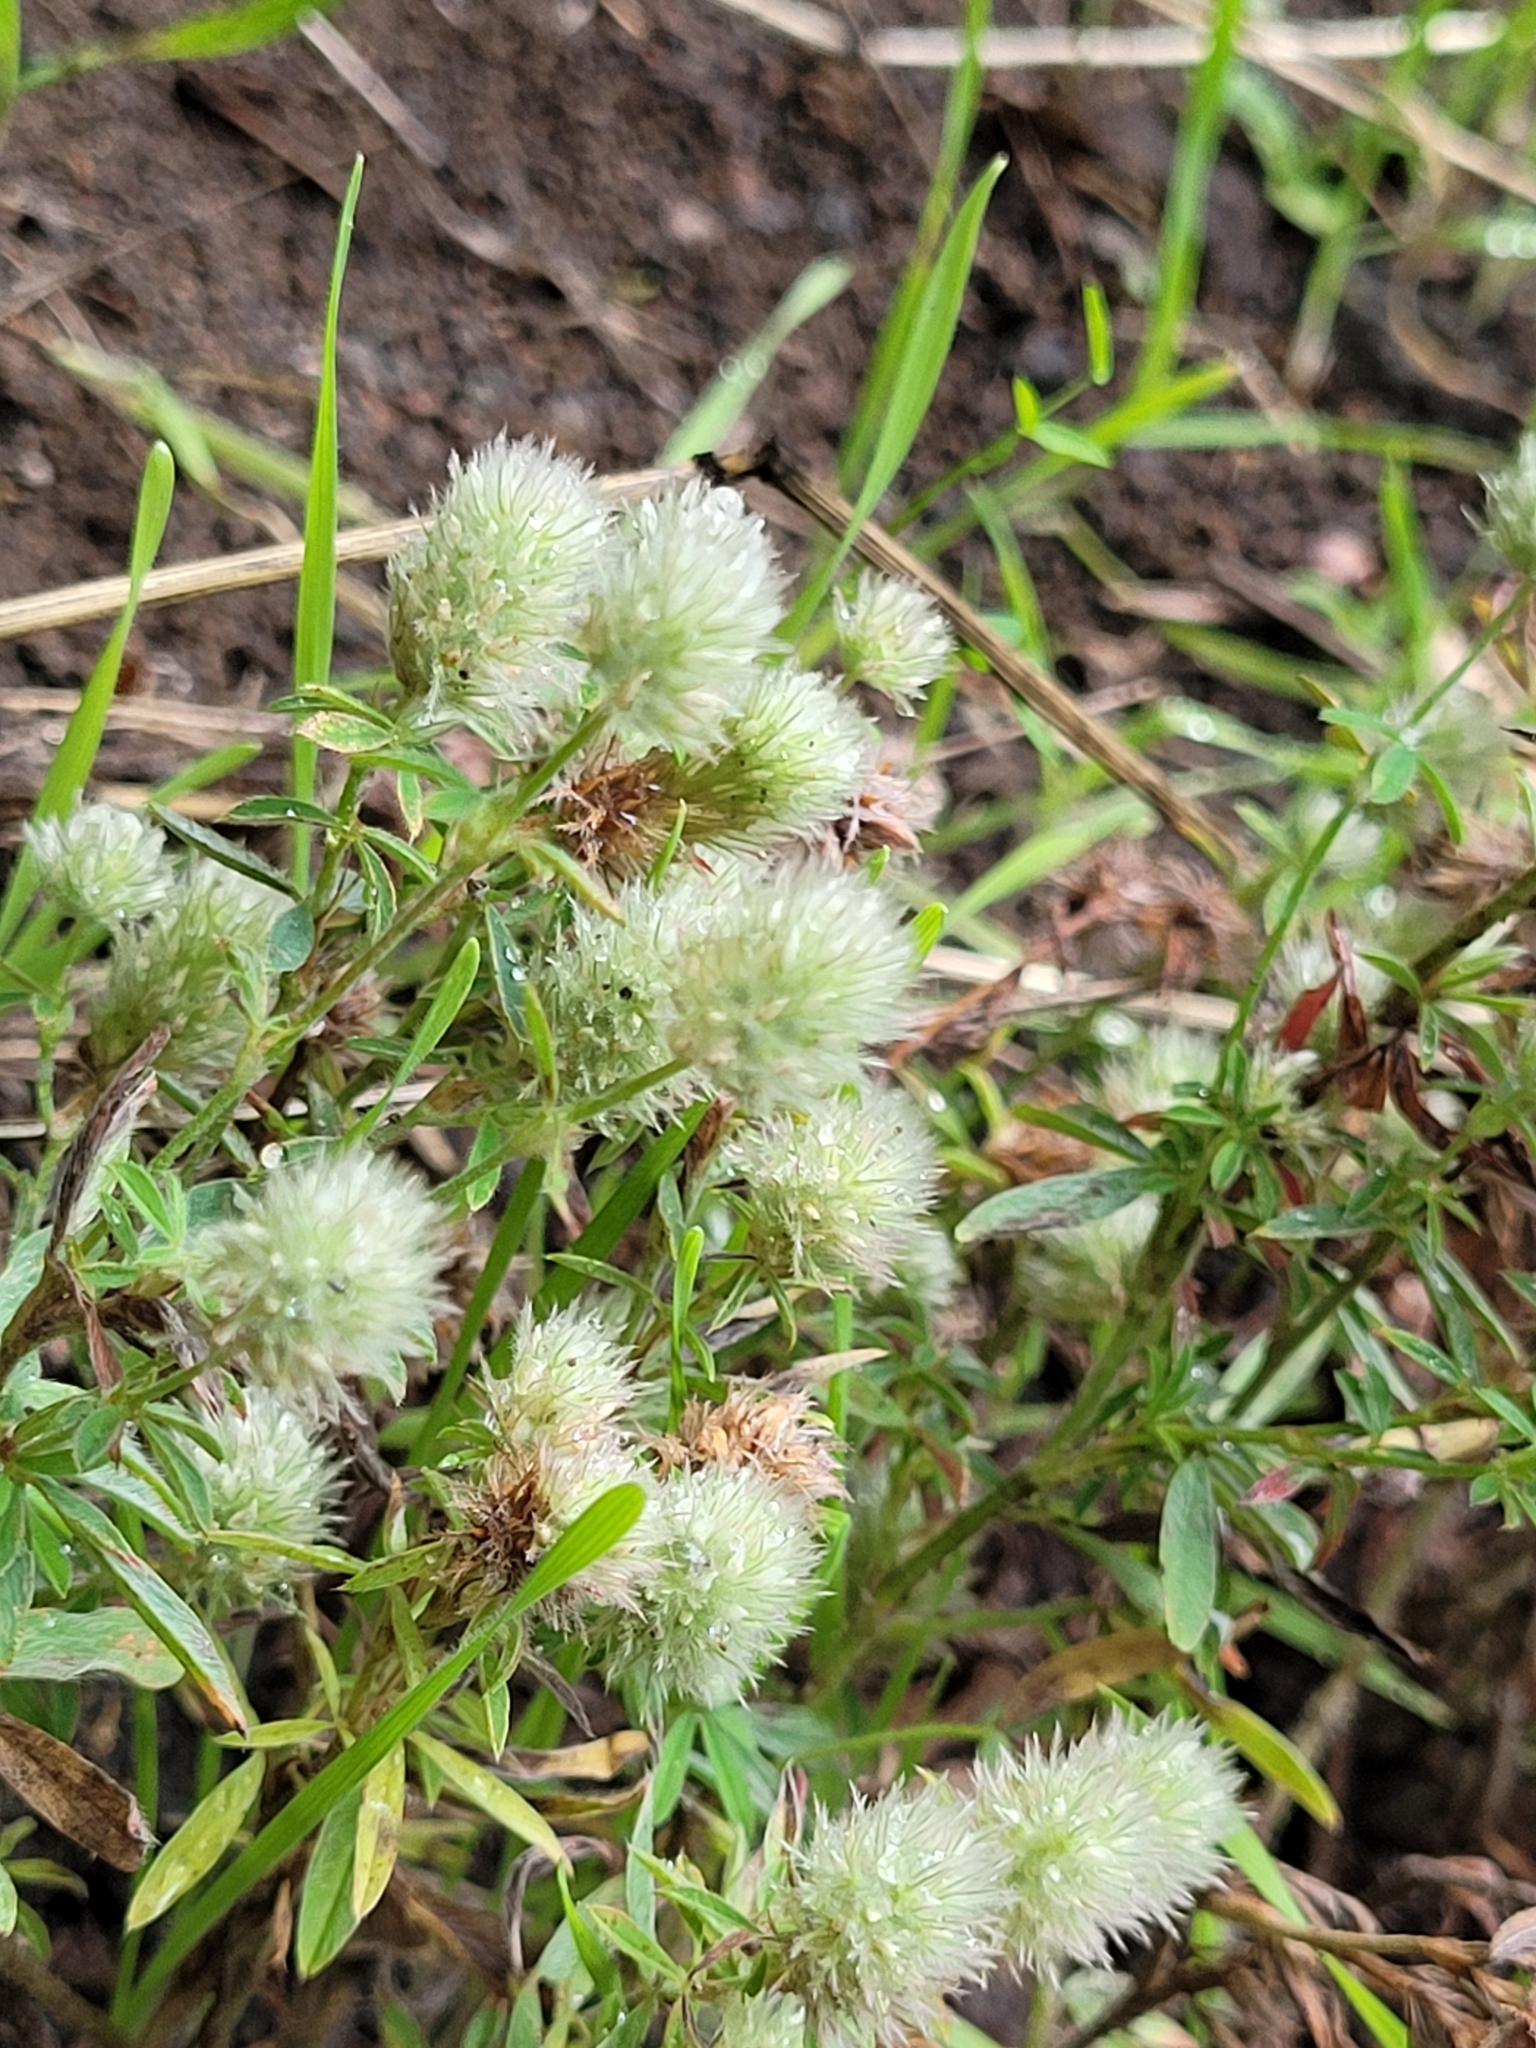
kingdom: Plantae
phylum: Tracheophyta
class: Magnoliopsida
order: Fabales
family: Fabaceae
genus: Trifolium
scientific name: Trifolium arvense
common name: Hare's-foot clover
